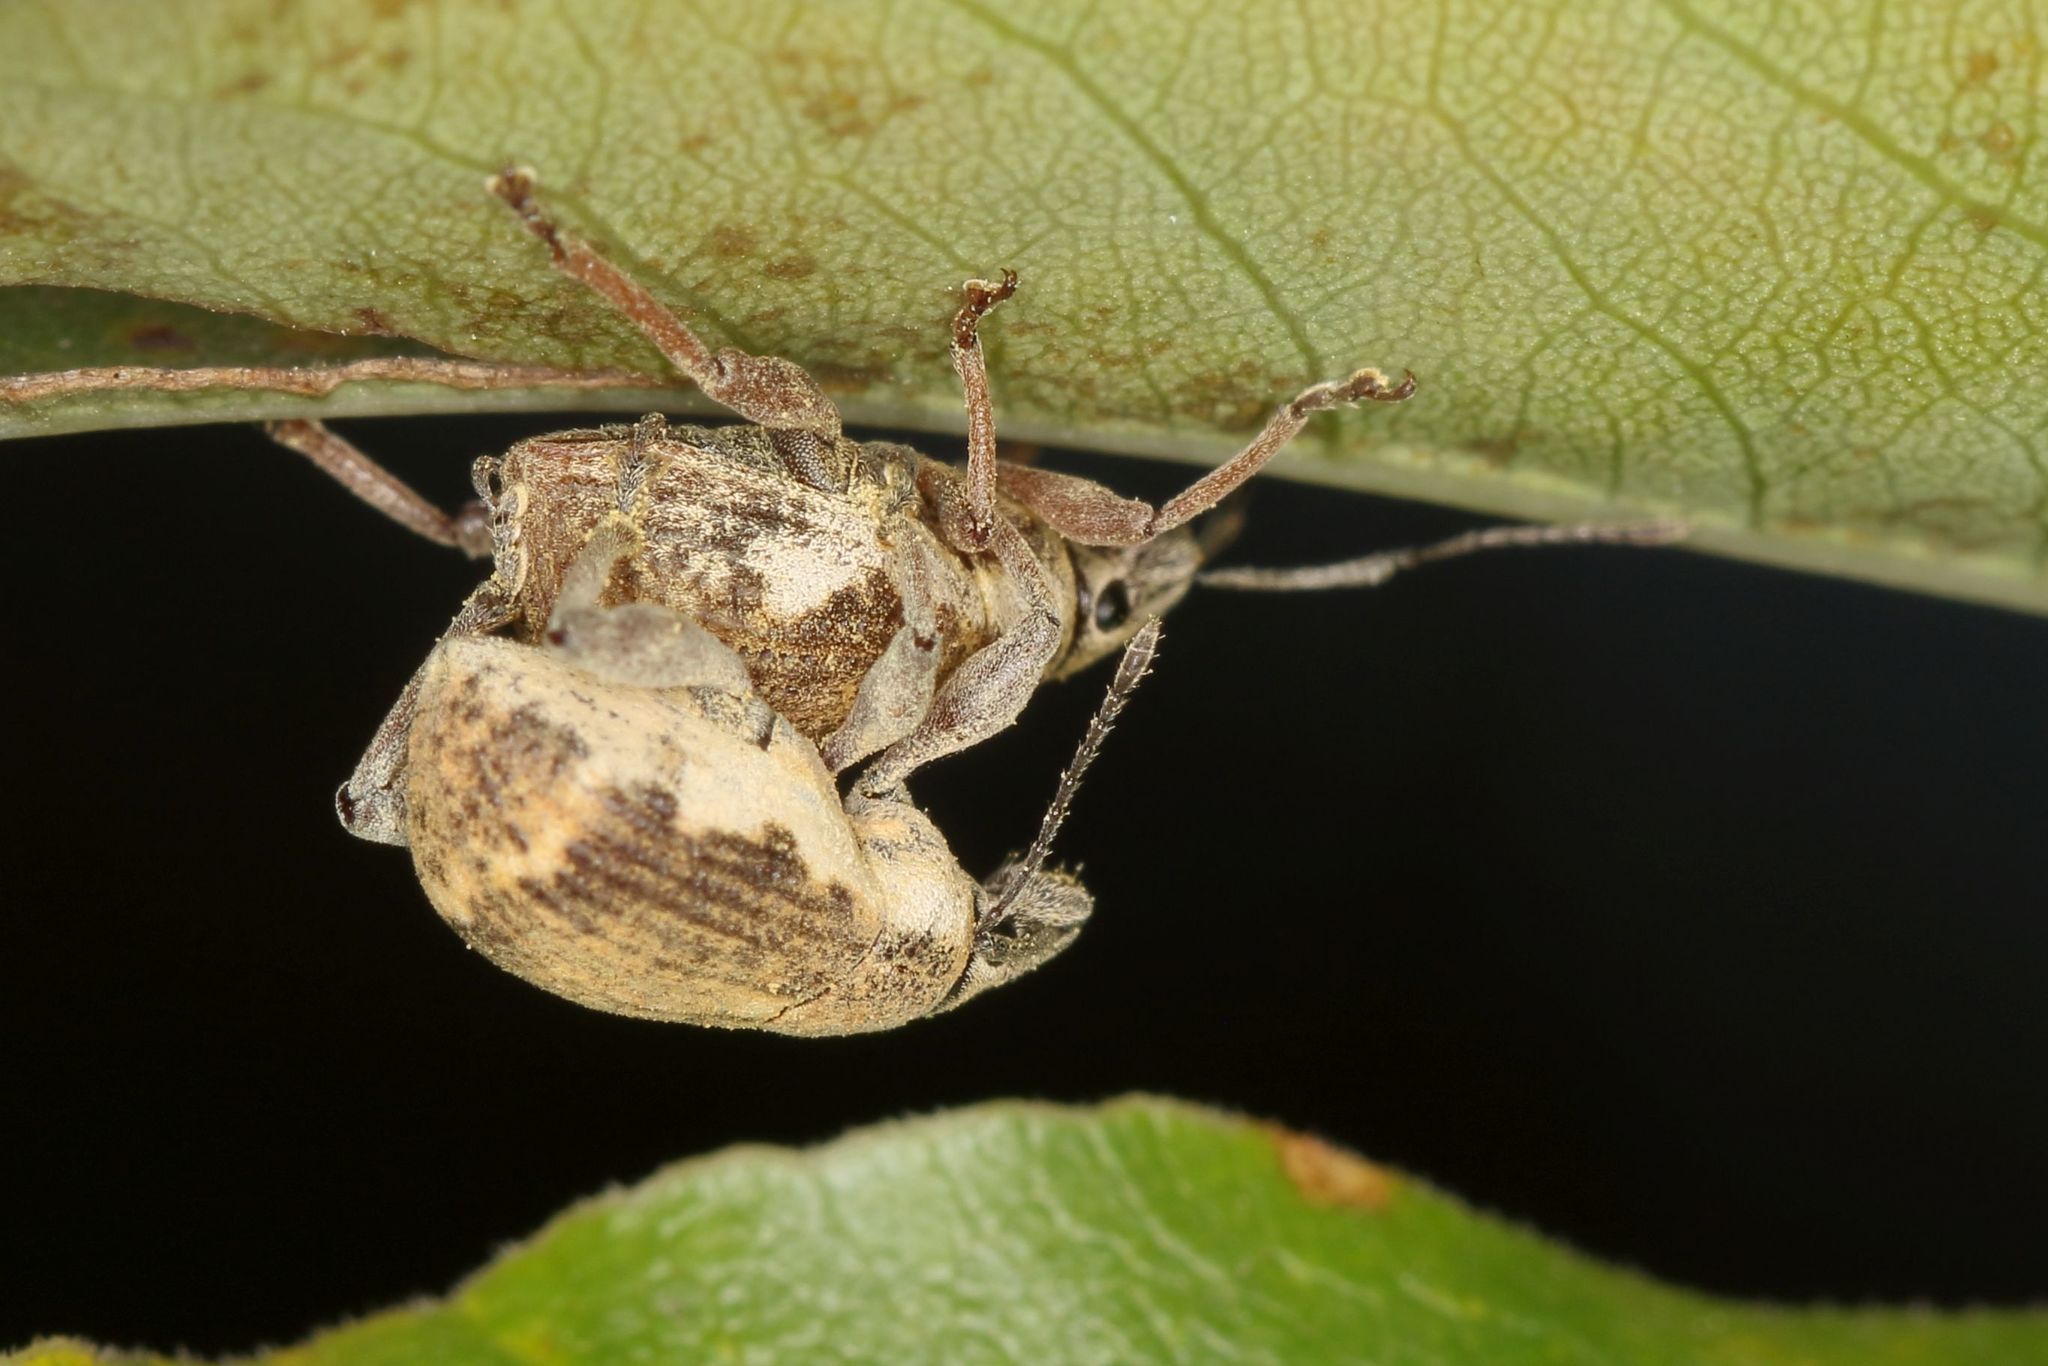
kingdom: Animalia
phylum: Arthropoda
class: Insecta
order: Coleoptera
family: Curculionidae
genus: Sciobius
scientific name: Sciobius pullus
